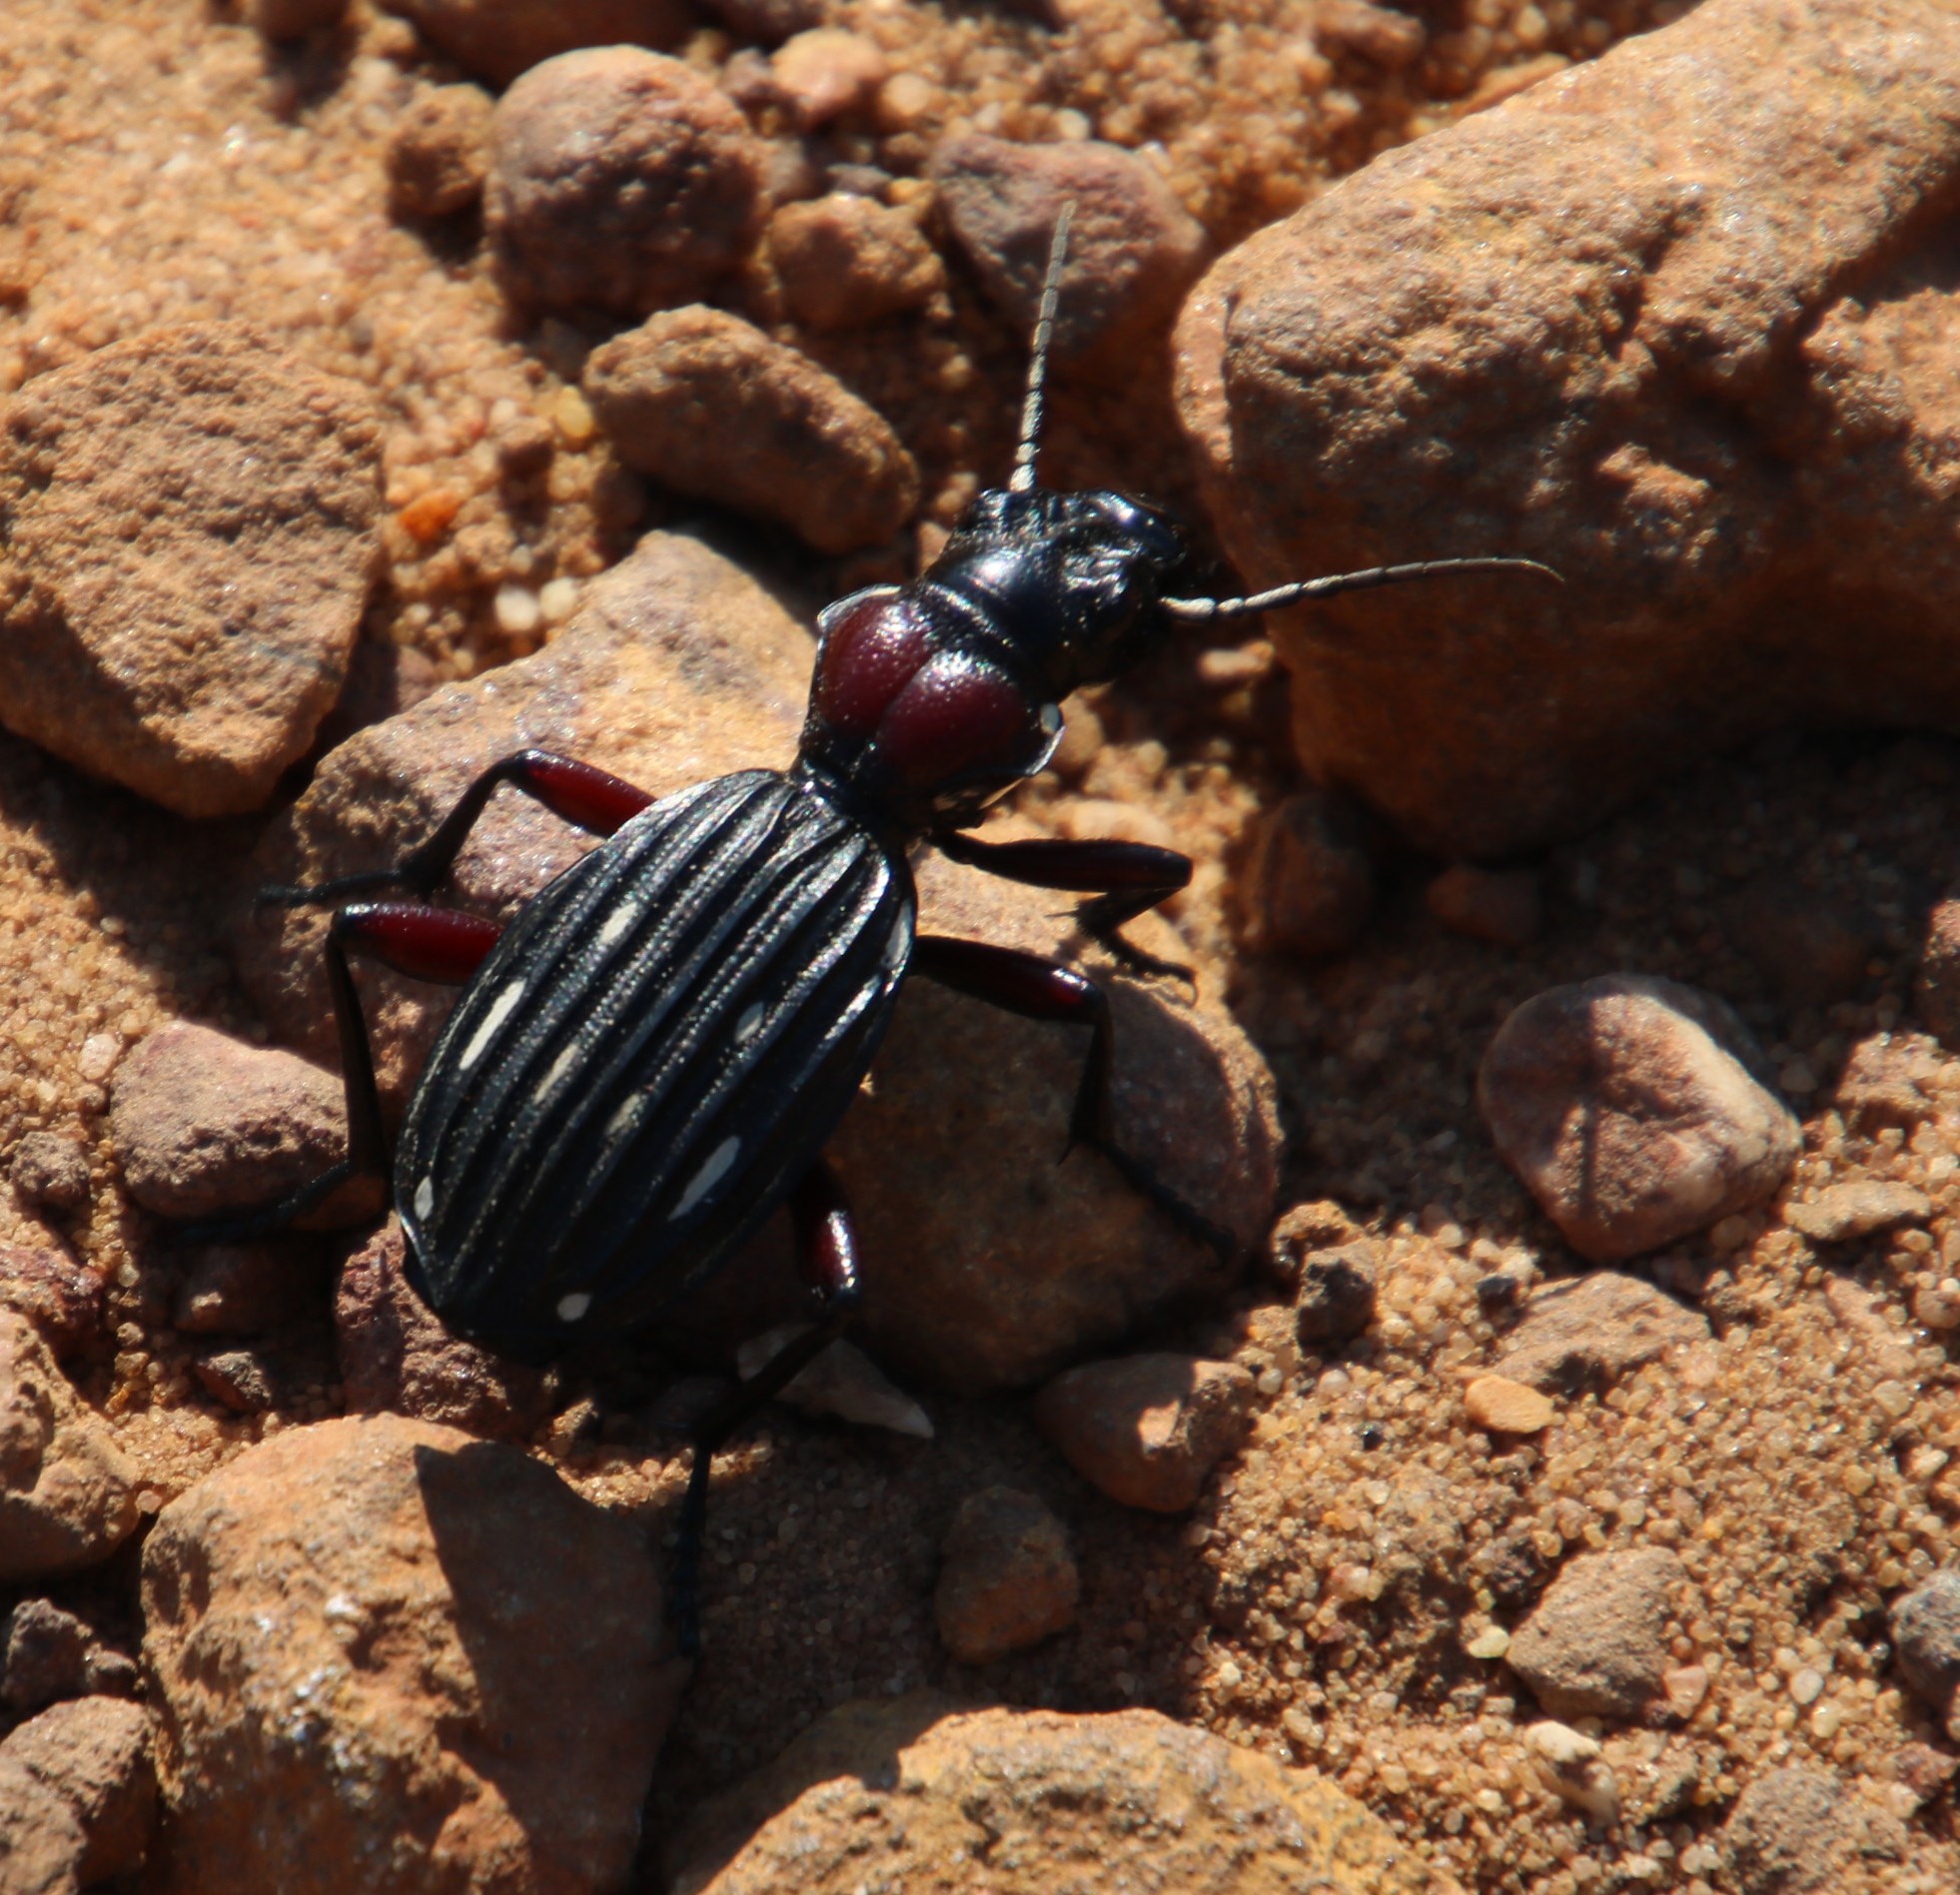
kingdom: Animalia
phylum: Arthropoda
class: Insecta
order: Coleoptera
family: Carabidae
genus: Anthia
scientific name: Anthia decemguttata
